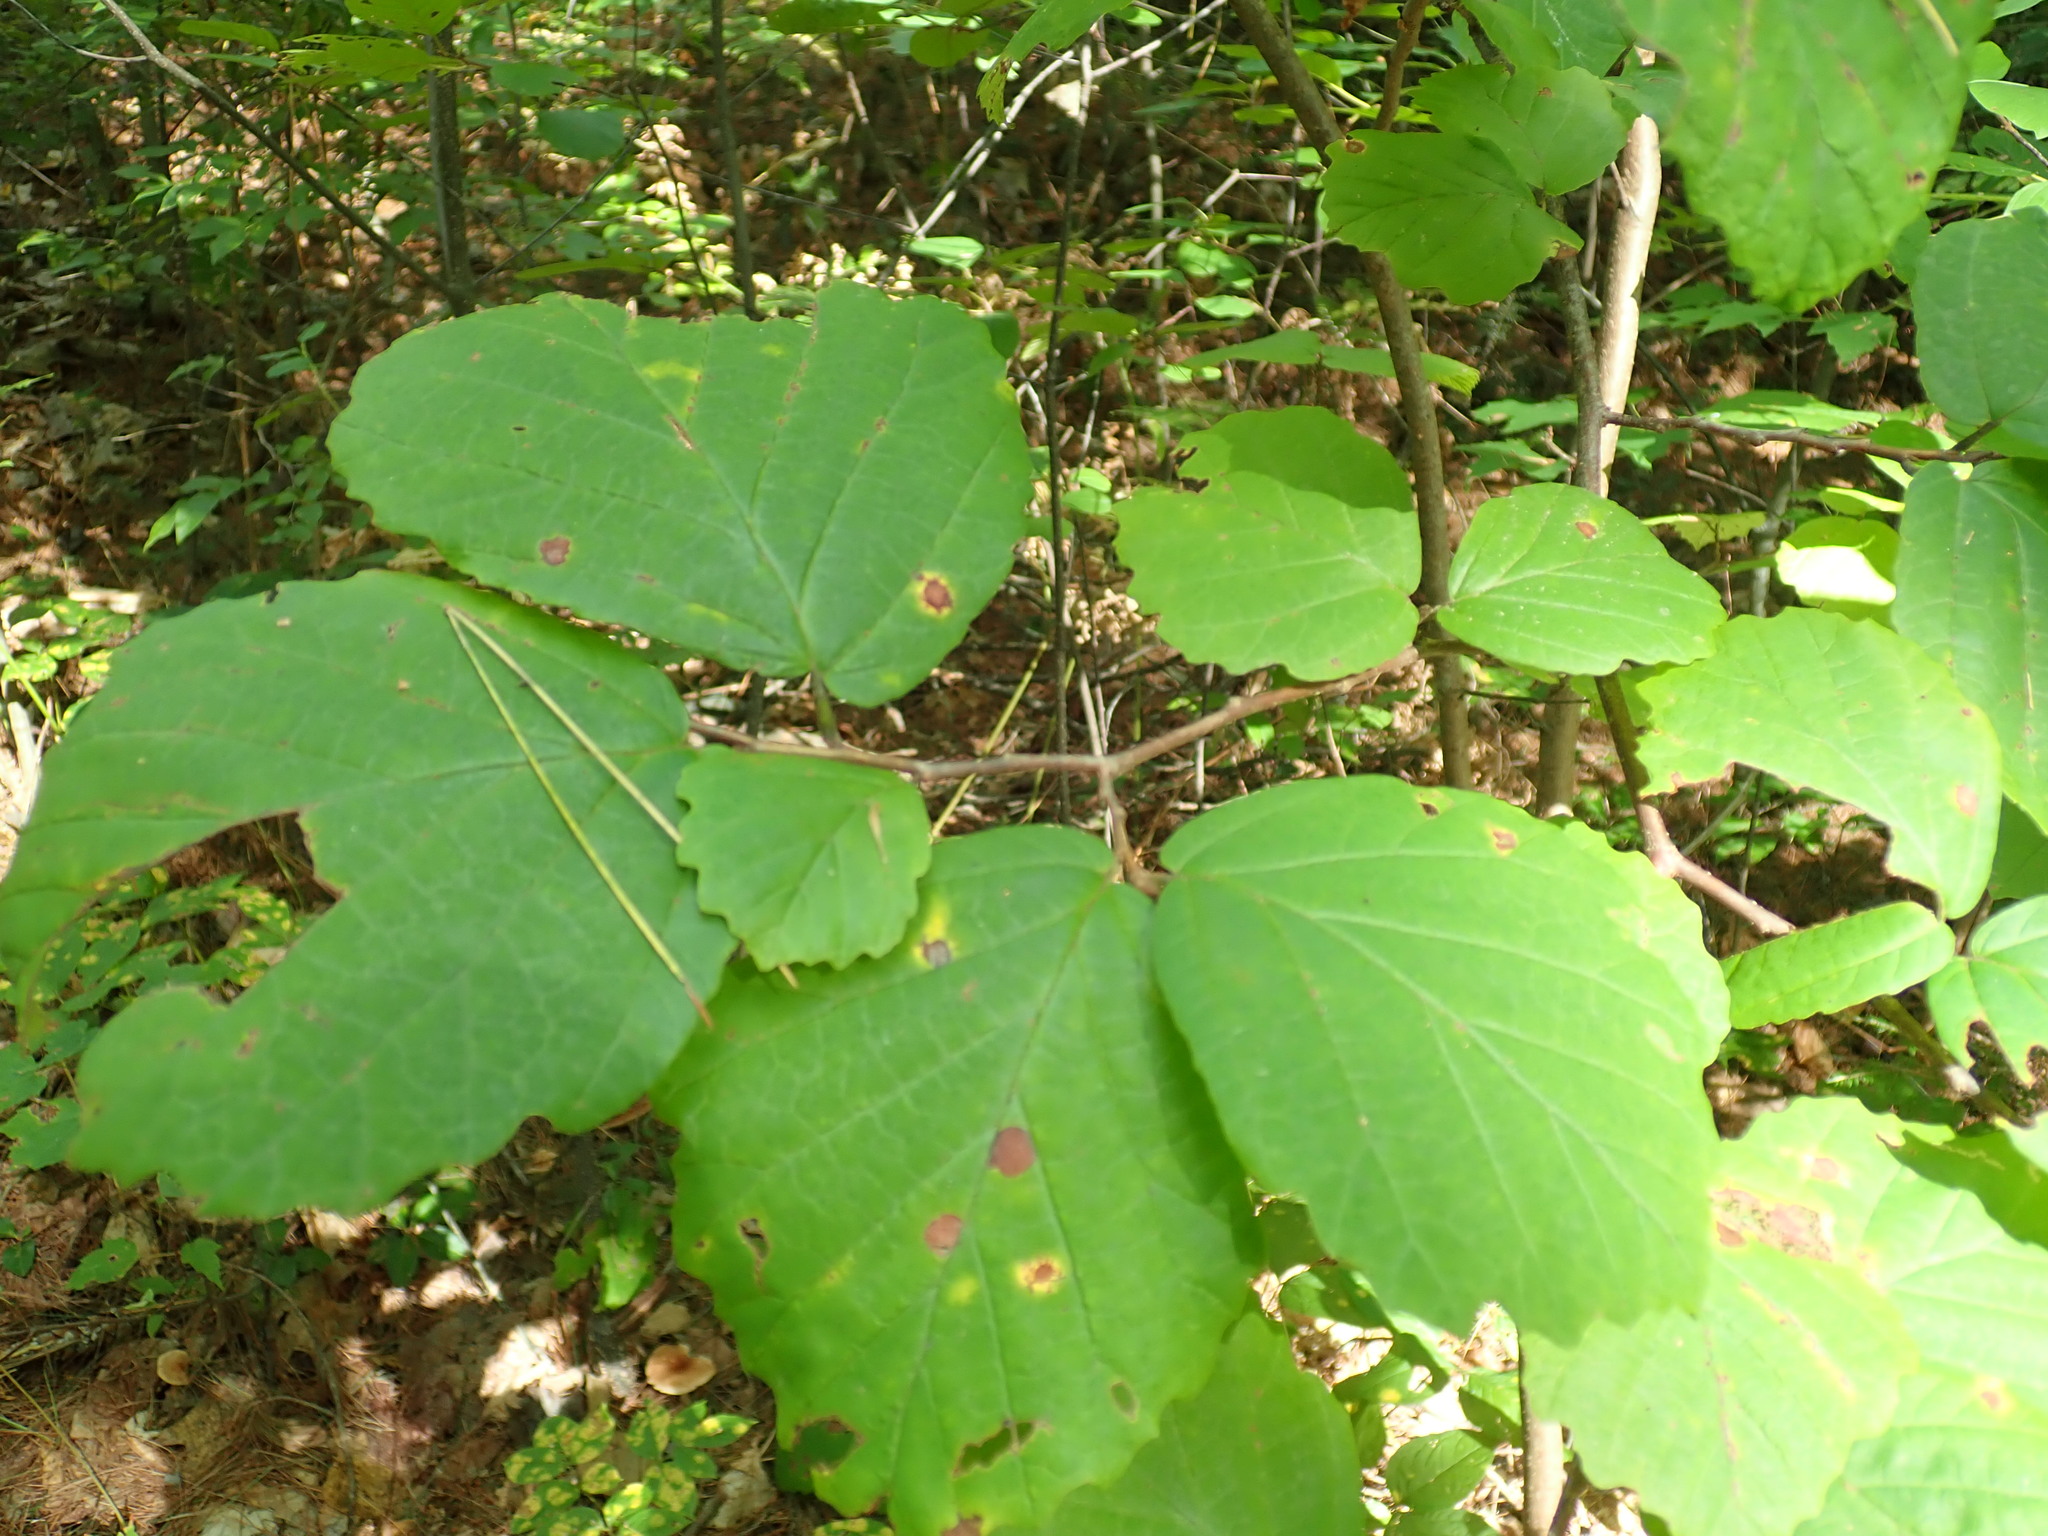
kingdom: Plantae
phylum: Tracheophyta
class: Magnoliopsida
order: Saxifragales
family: Hamamelidaceae
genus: Hamamelis
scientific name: Hamamelis virginiana
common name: Witch-hazel
